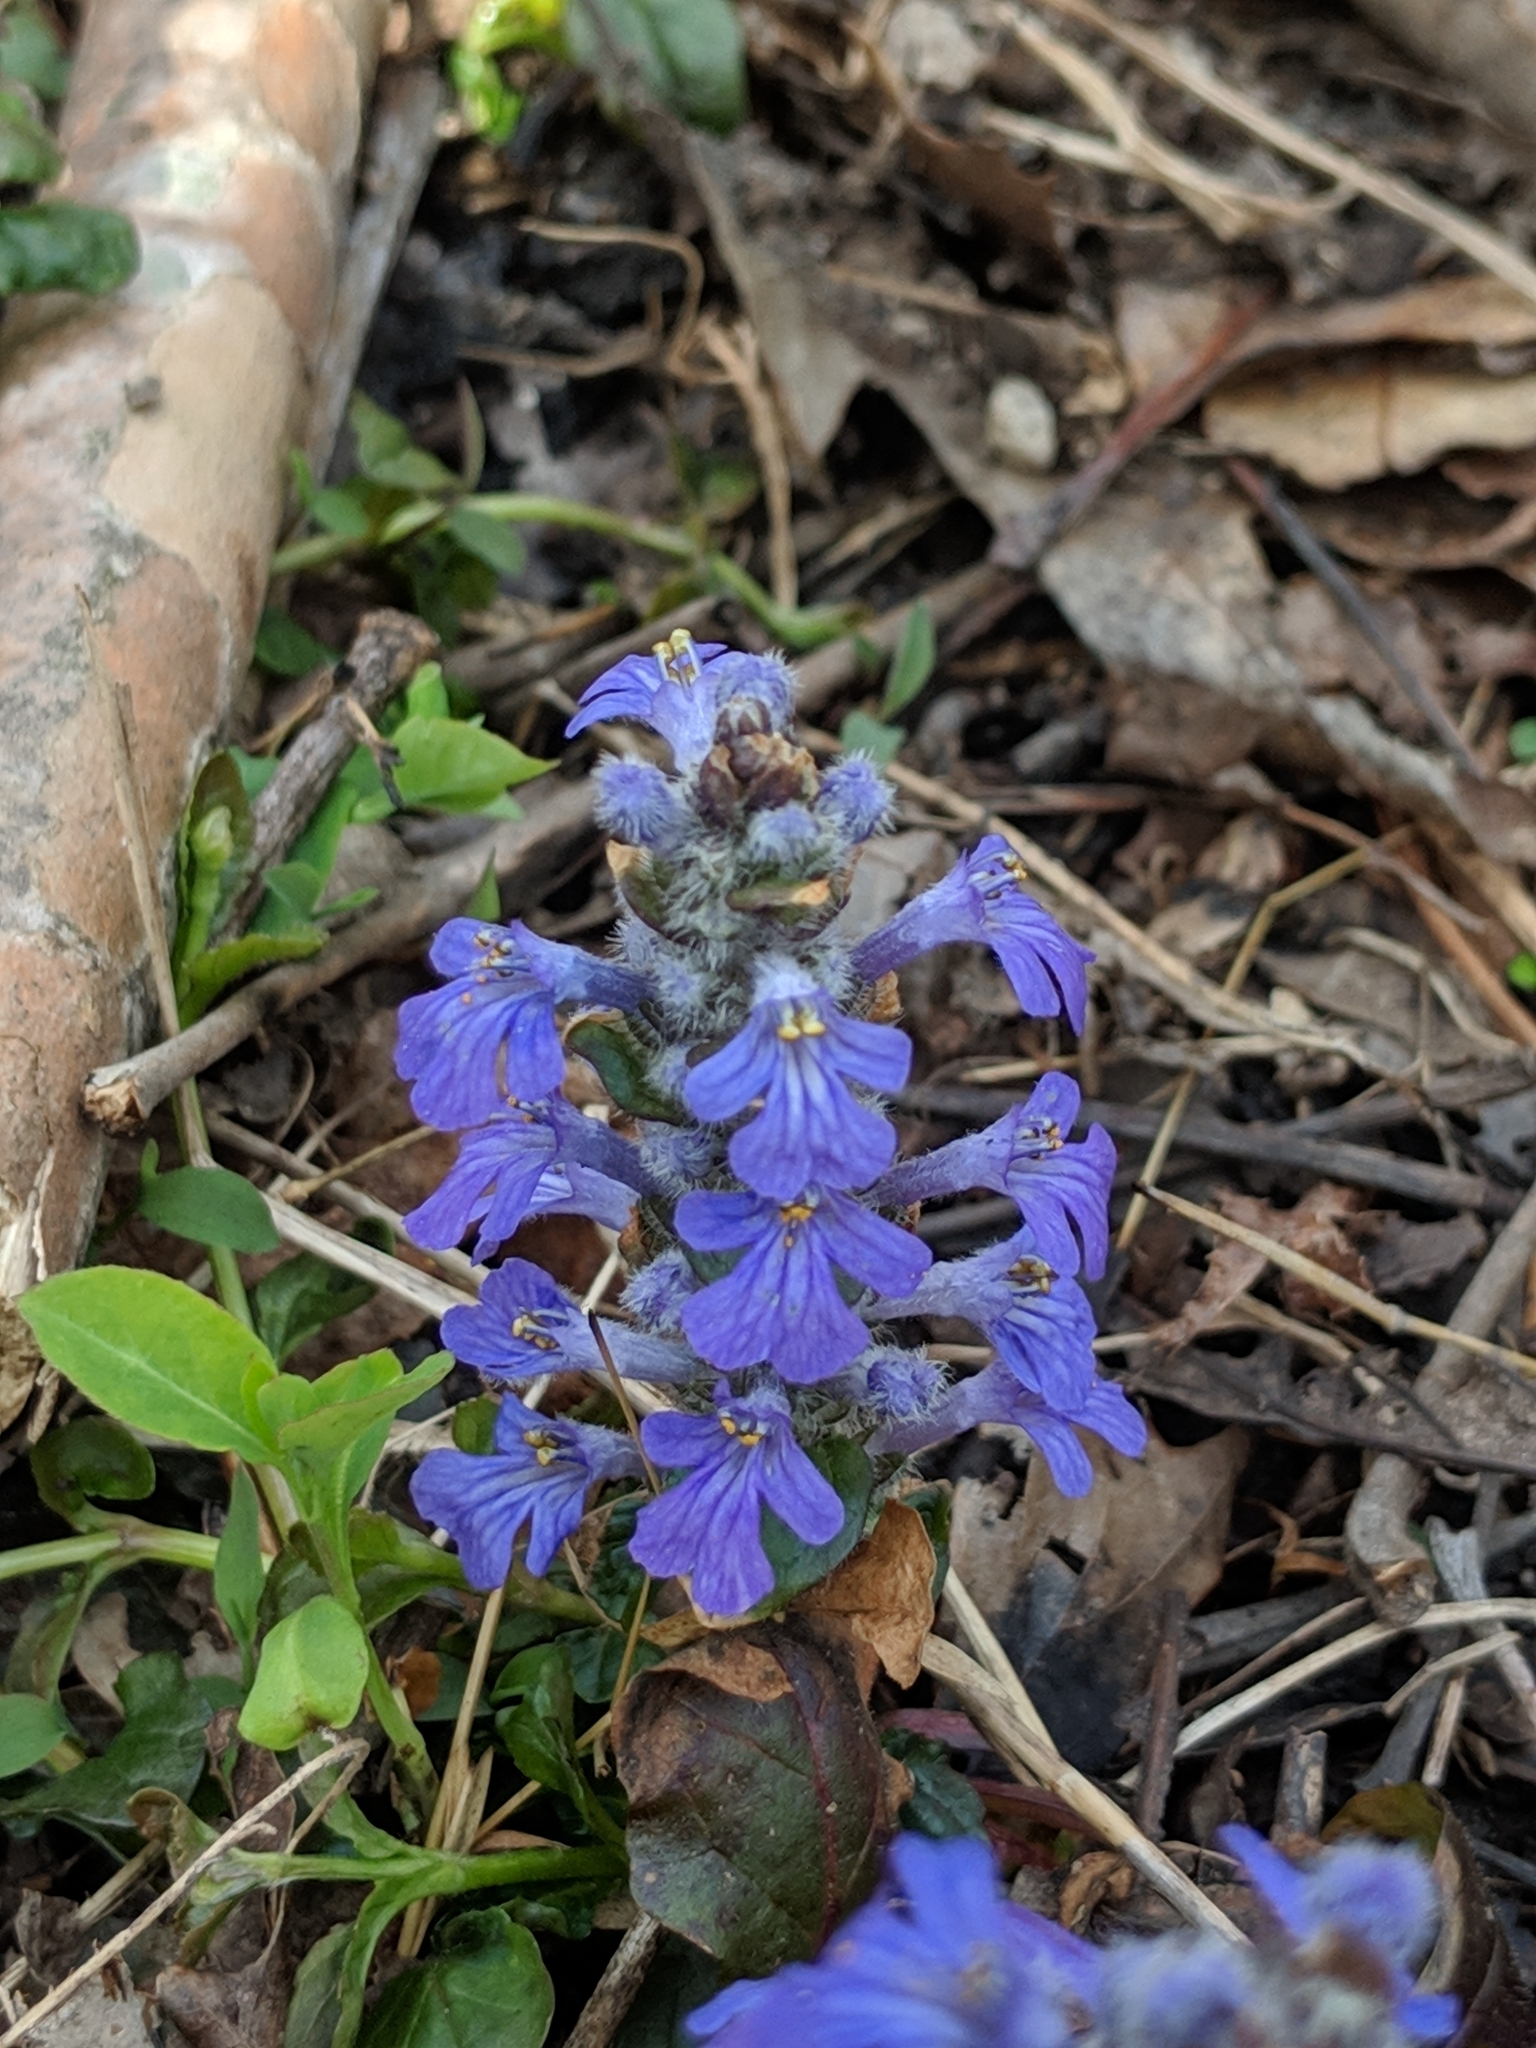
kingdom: Plantae
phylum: Tracheophyta
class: Magnoliopsida
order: Lamiales
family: Lamiaceae
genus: Ajuga
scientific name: Ajuga reptans
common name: Bugle
